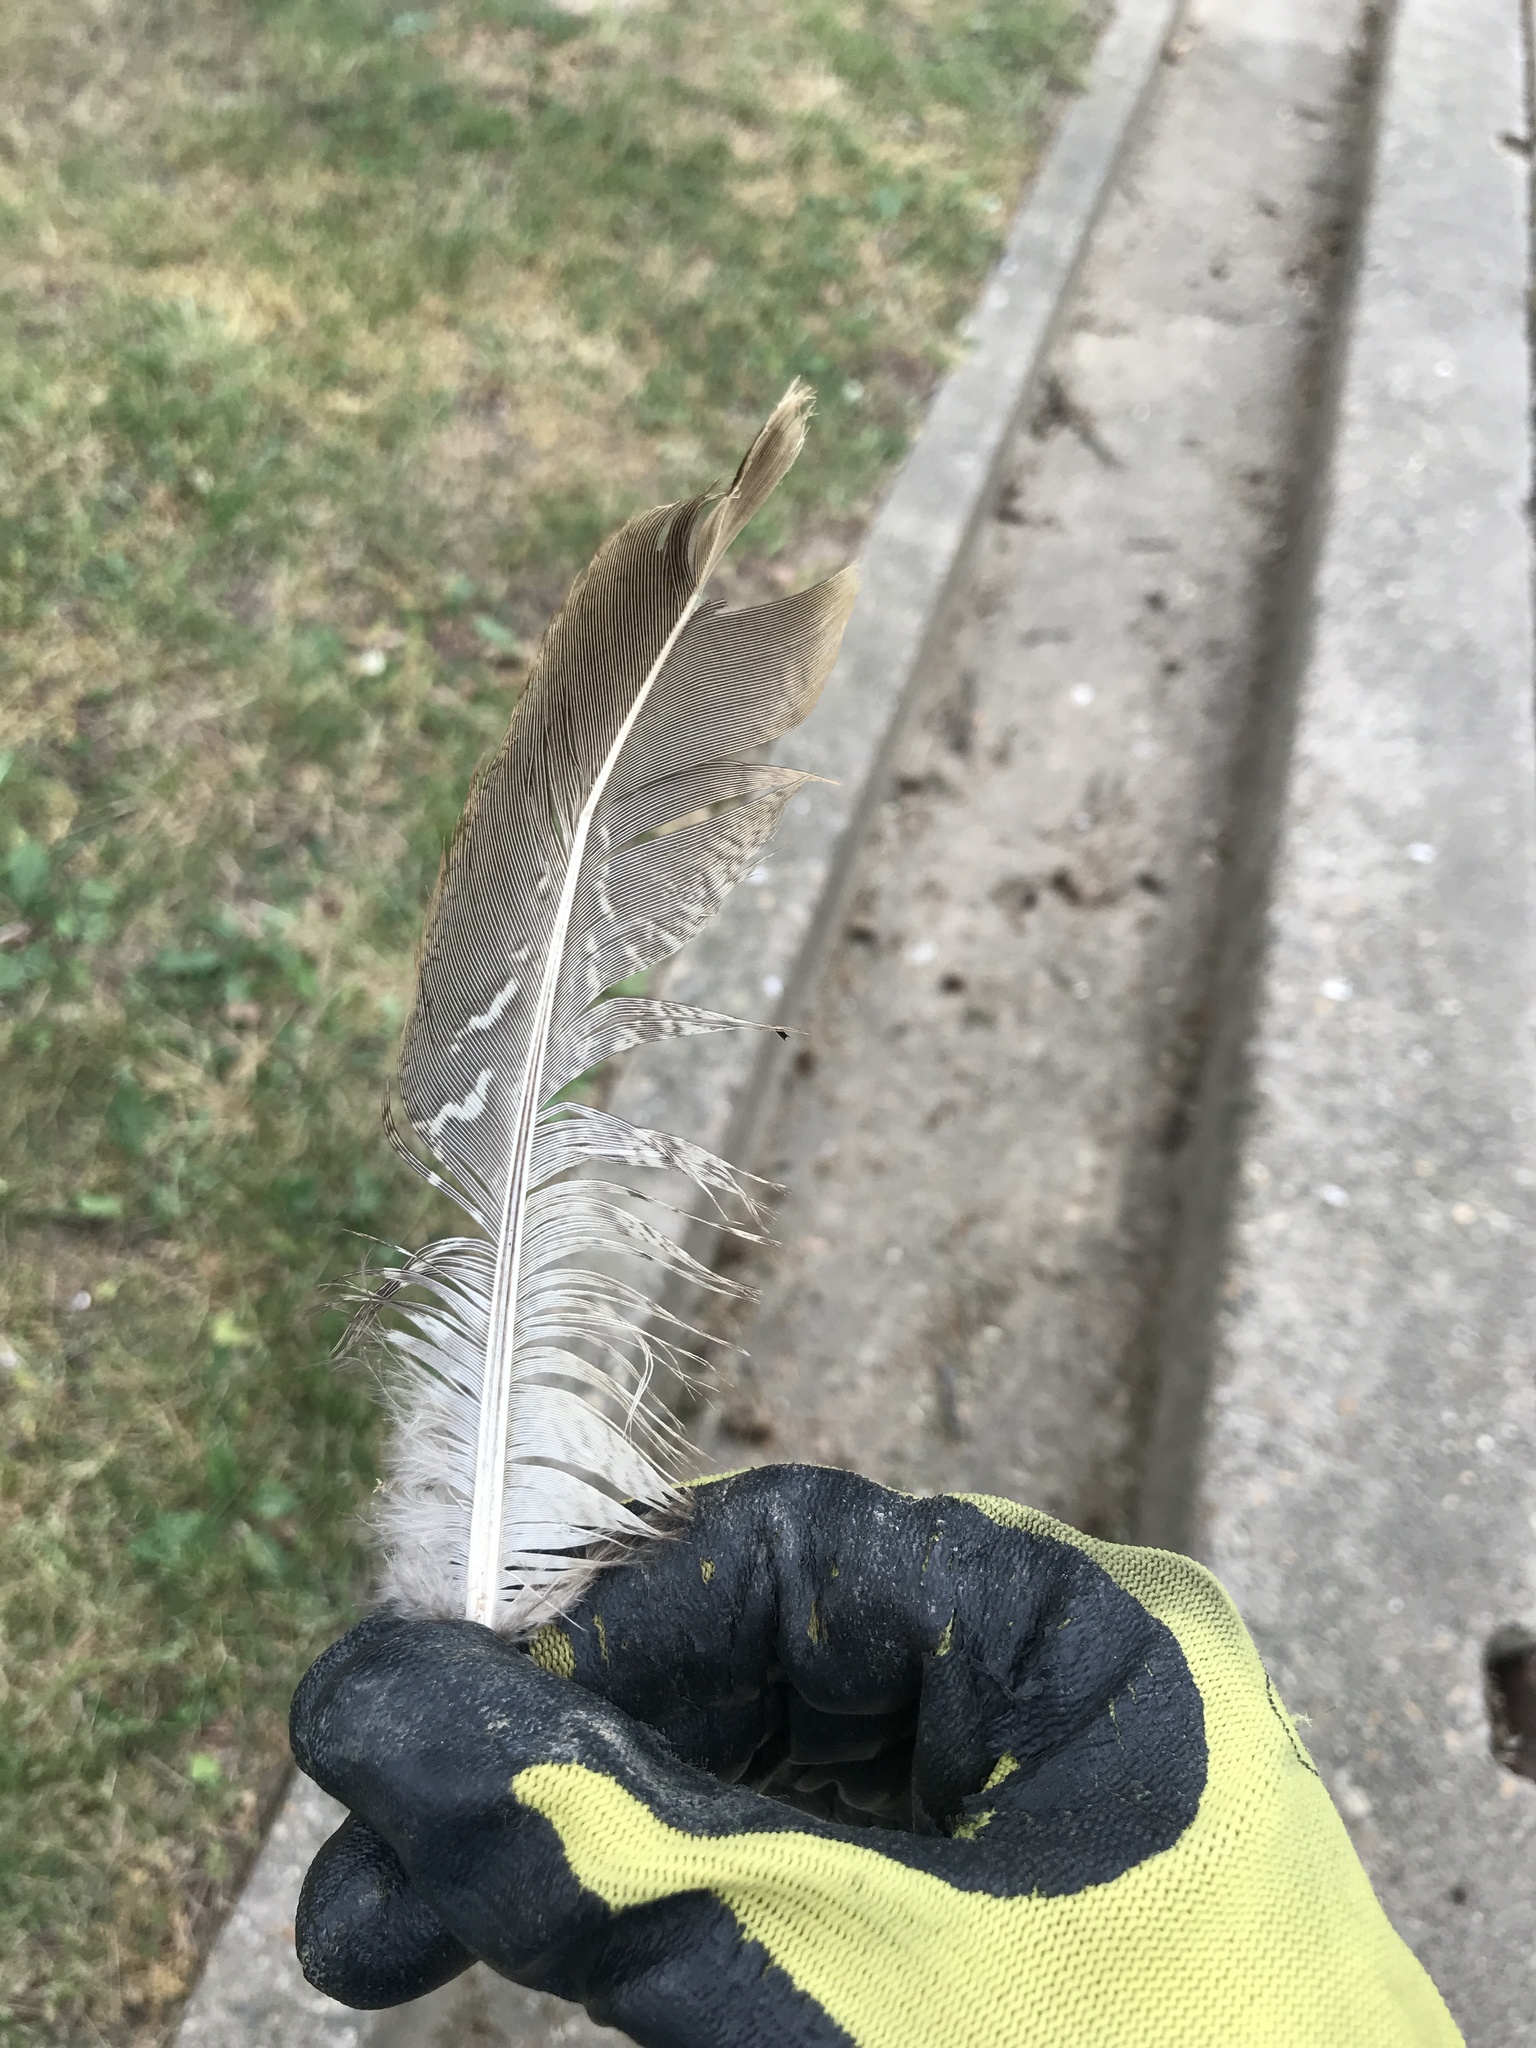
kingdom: Animalia
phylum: Chordata
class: Aves
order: Galliformes
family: Phasianidae
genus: Phasianus
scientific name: Phasianus colchicus
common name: Common pheasant
